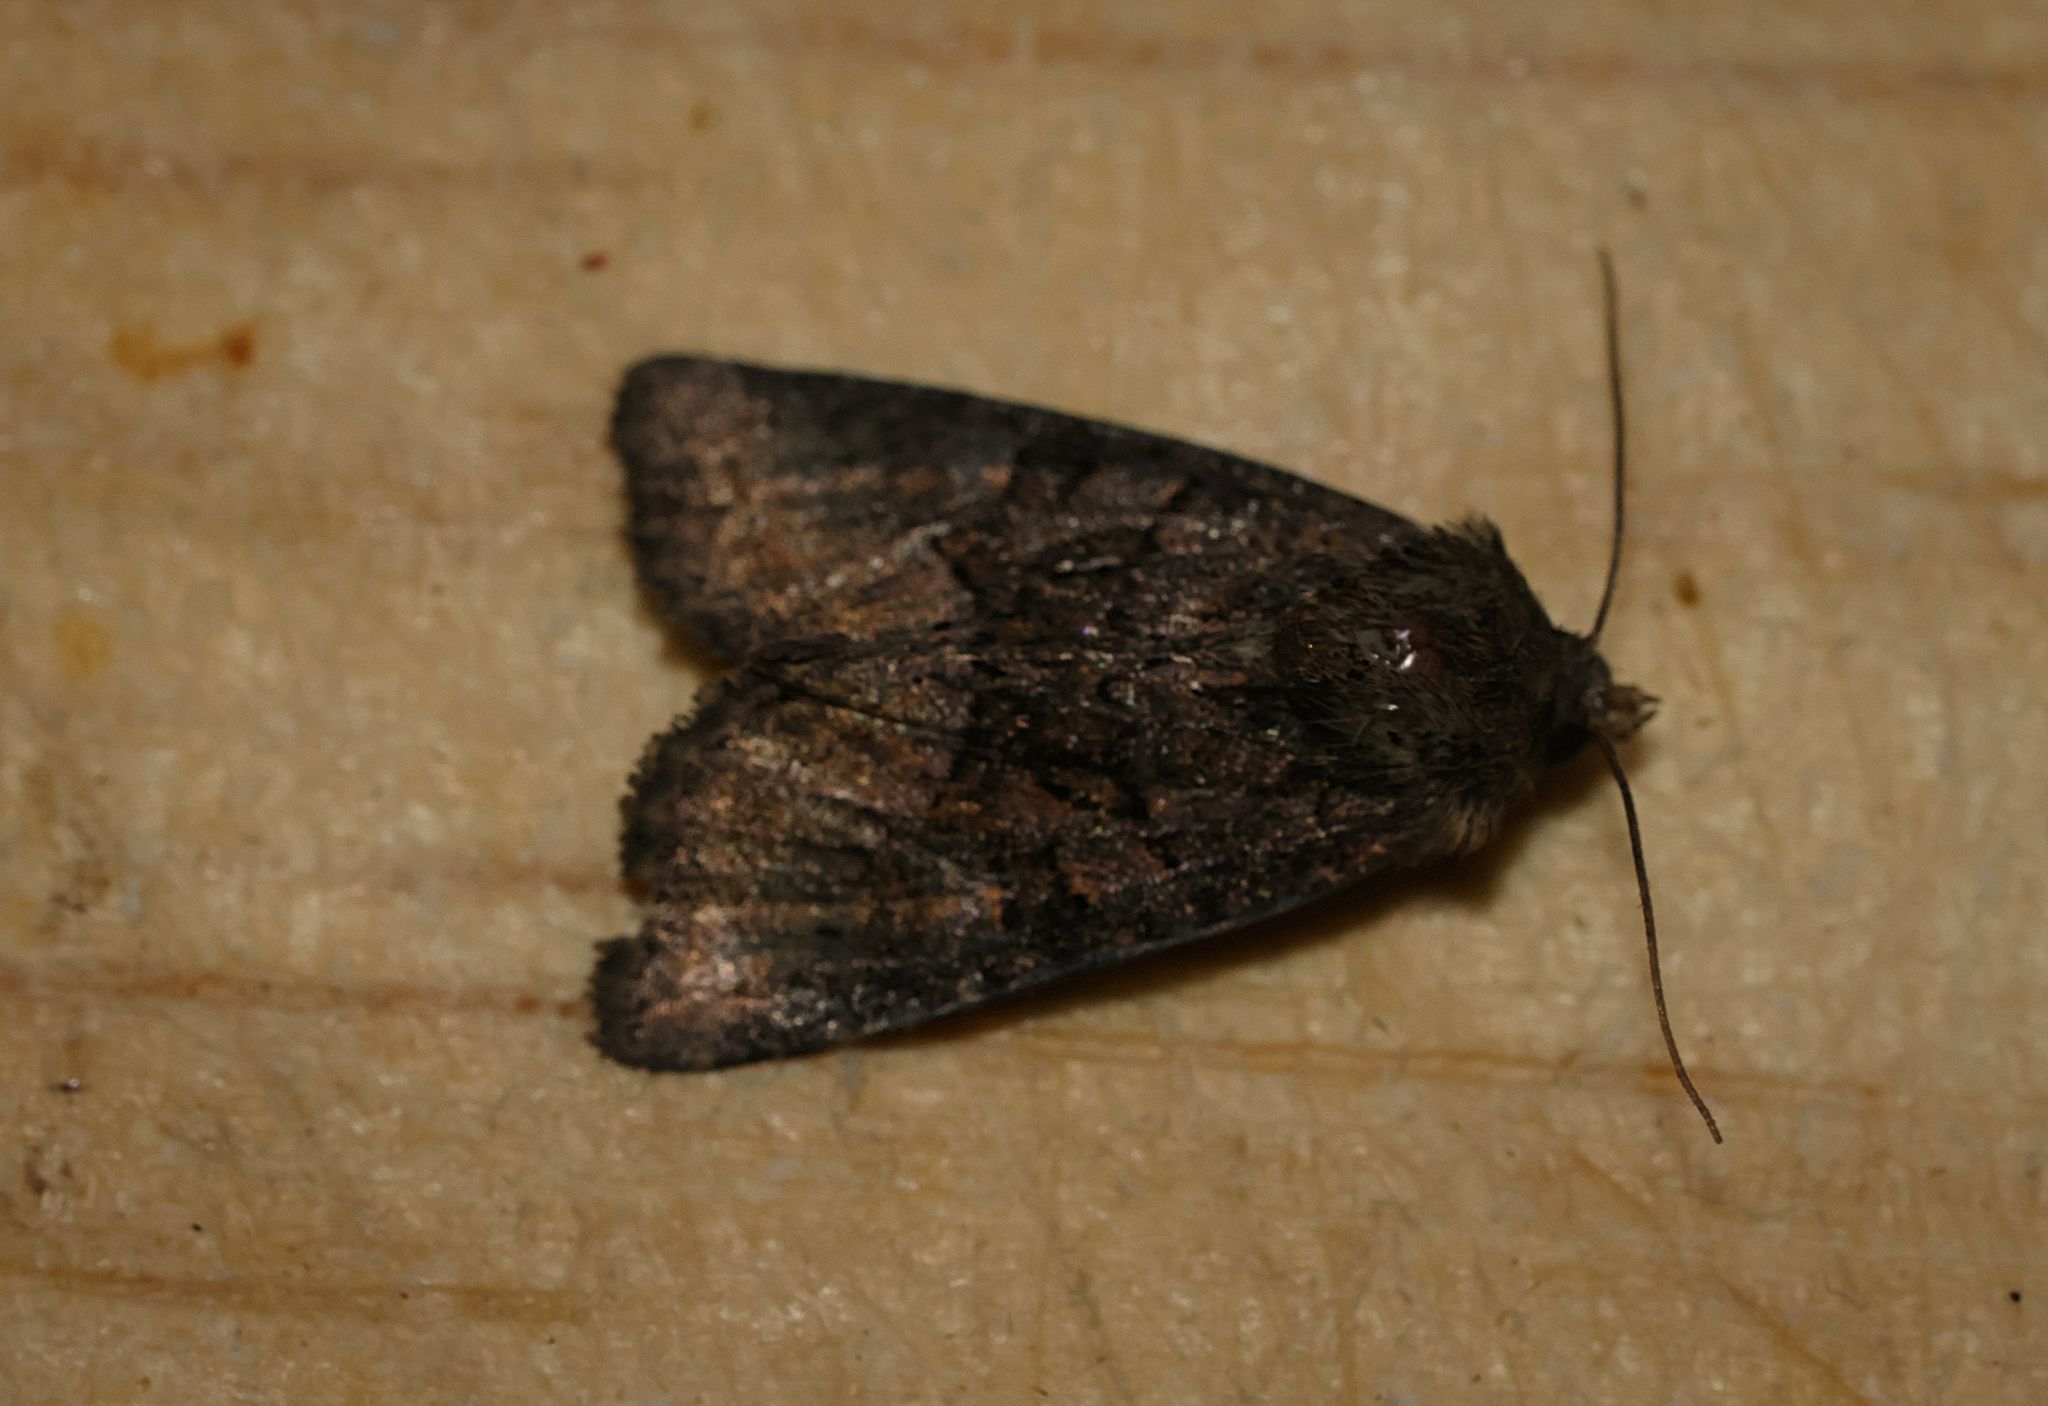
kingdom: Animalia
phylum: Arthropoda
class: Insecta
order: Lepidoptera
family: Noctuidae
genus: Oligia
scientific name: Oligia
